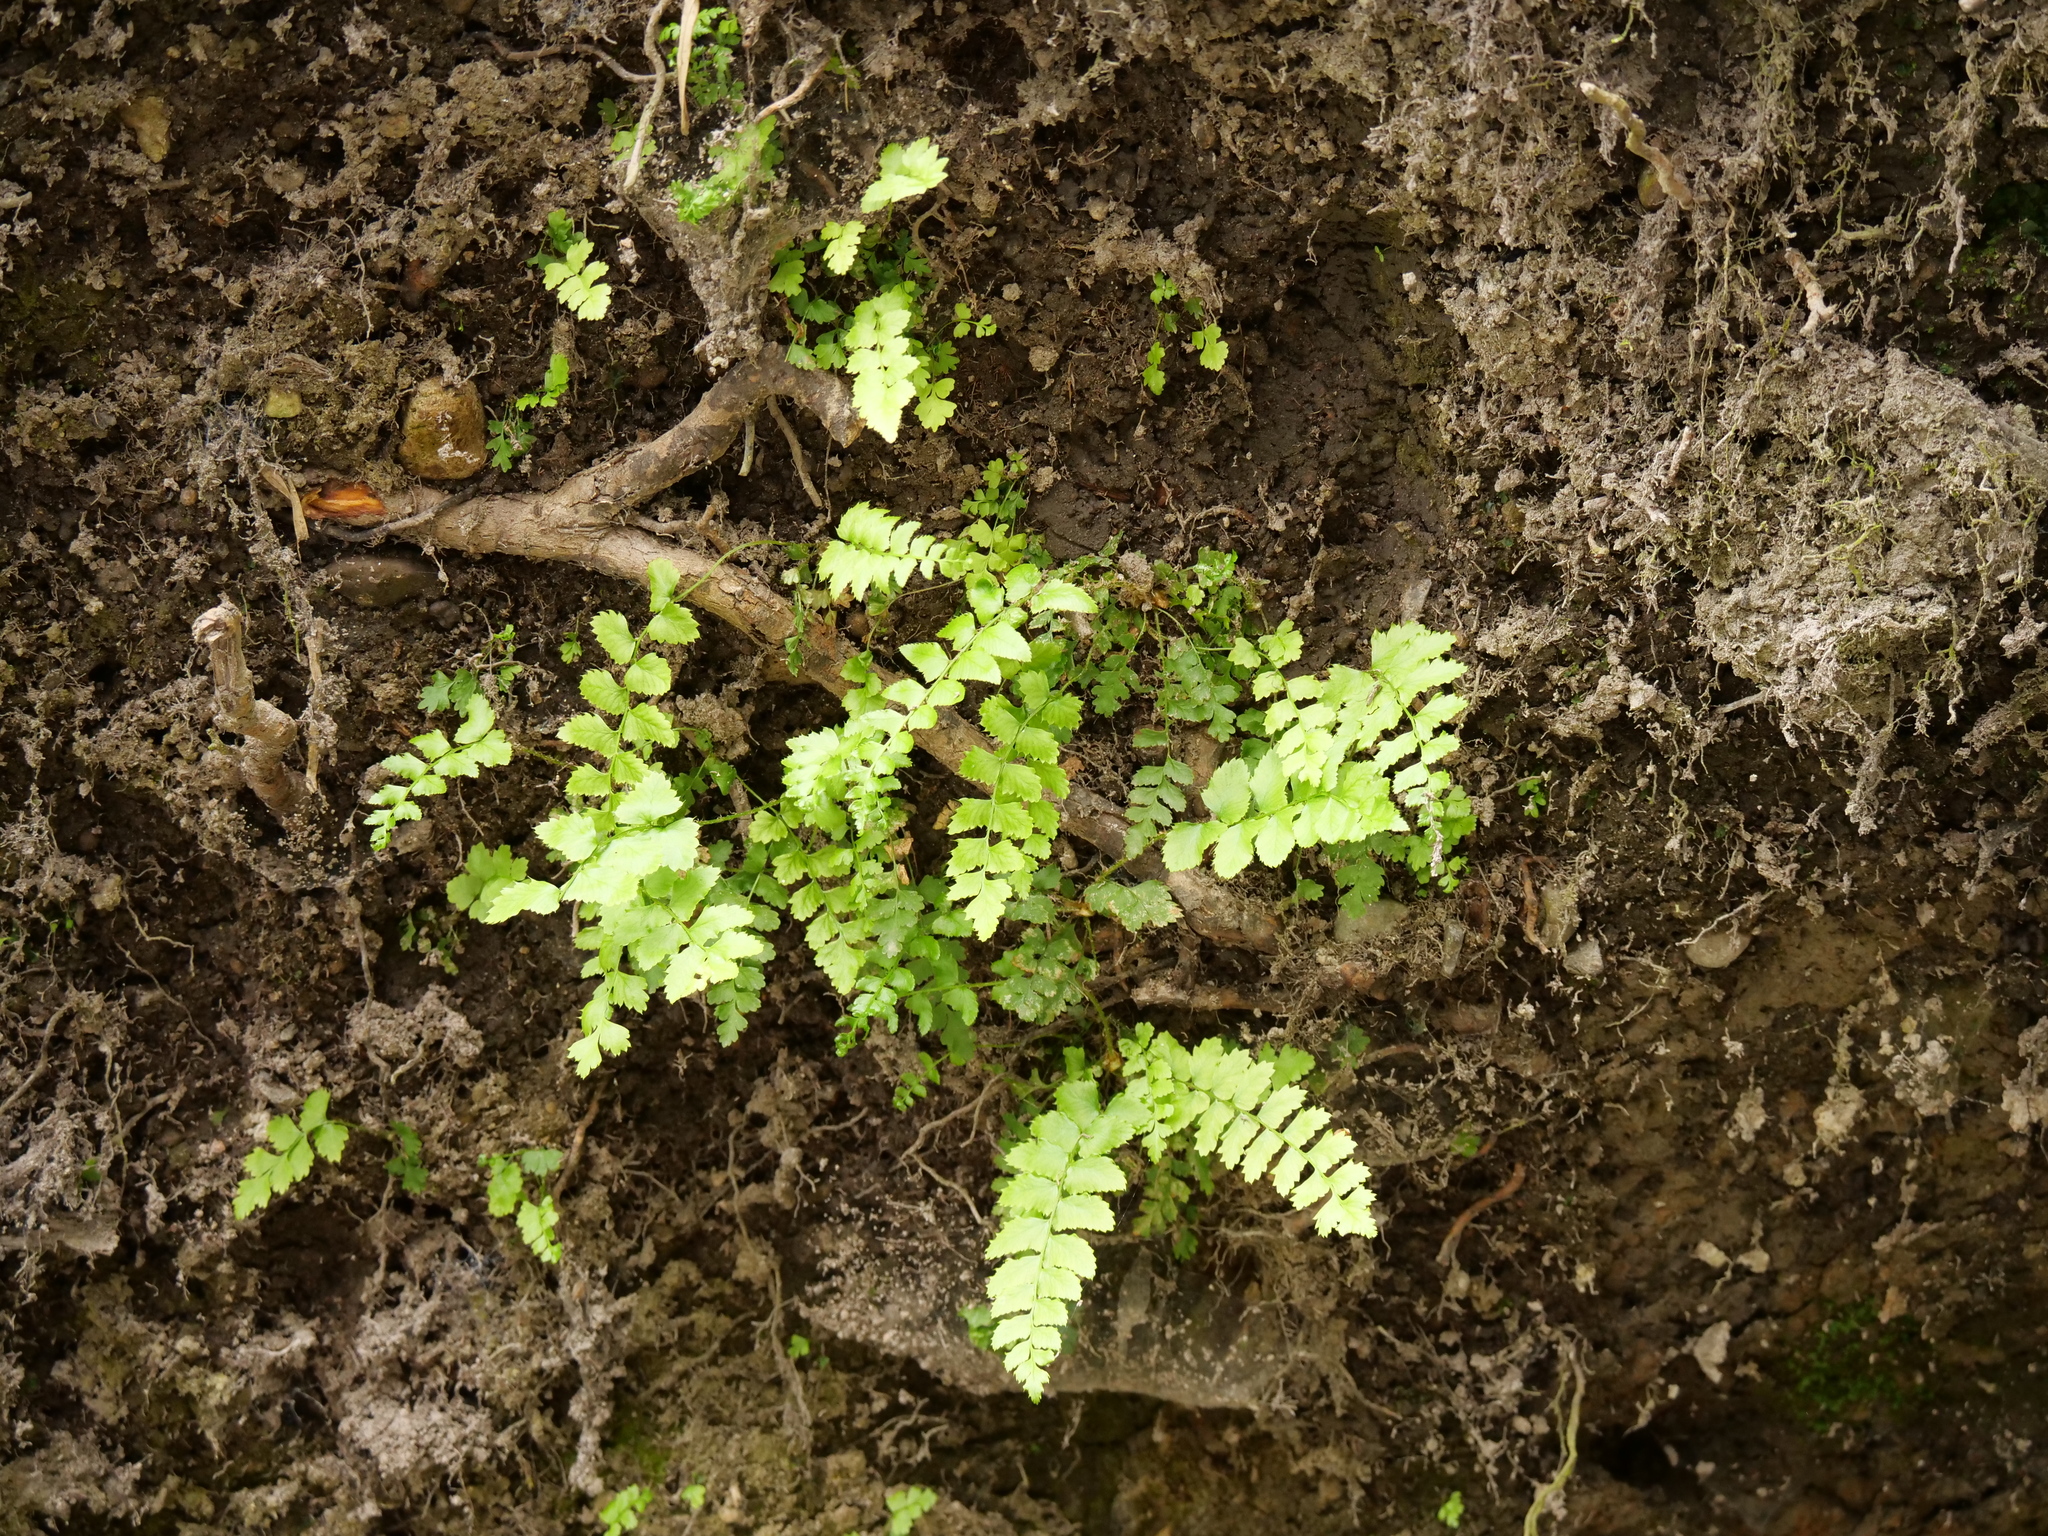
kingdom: Plantae
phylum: Tracheophyta
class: Polypodiopsida
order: Polypodiales
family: Dryopteridaceae
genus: Polystichum
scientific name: Polystichum munitum
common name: Western sword-fern
